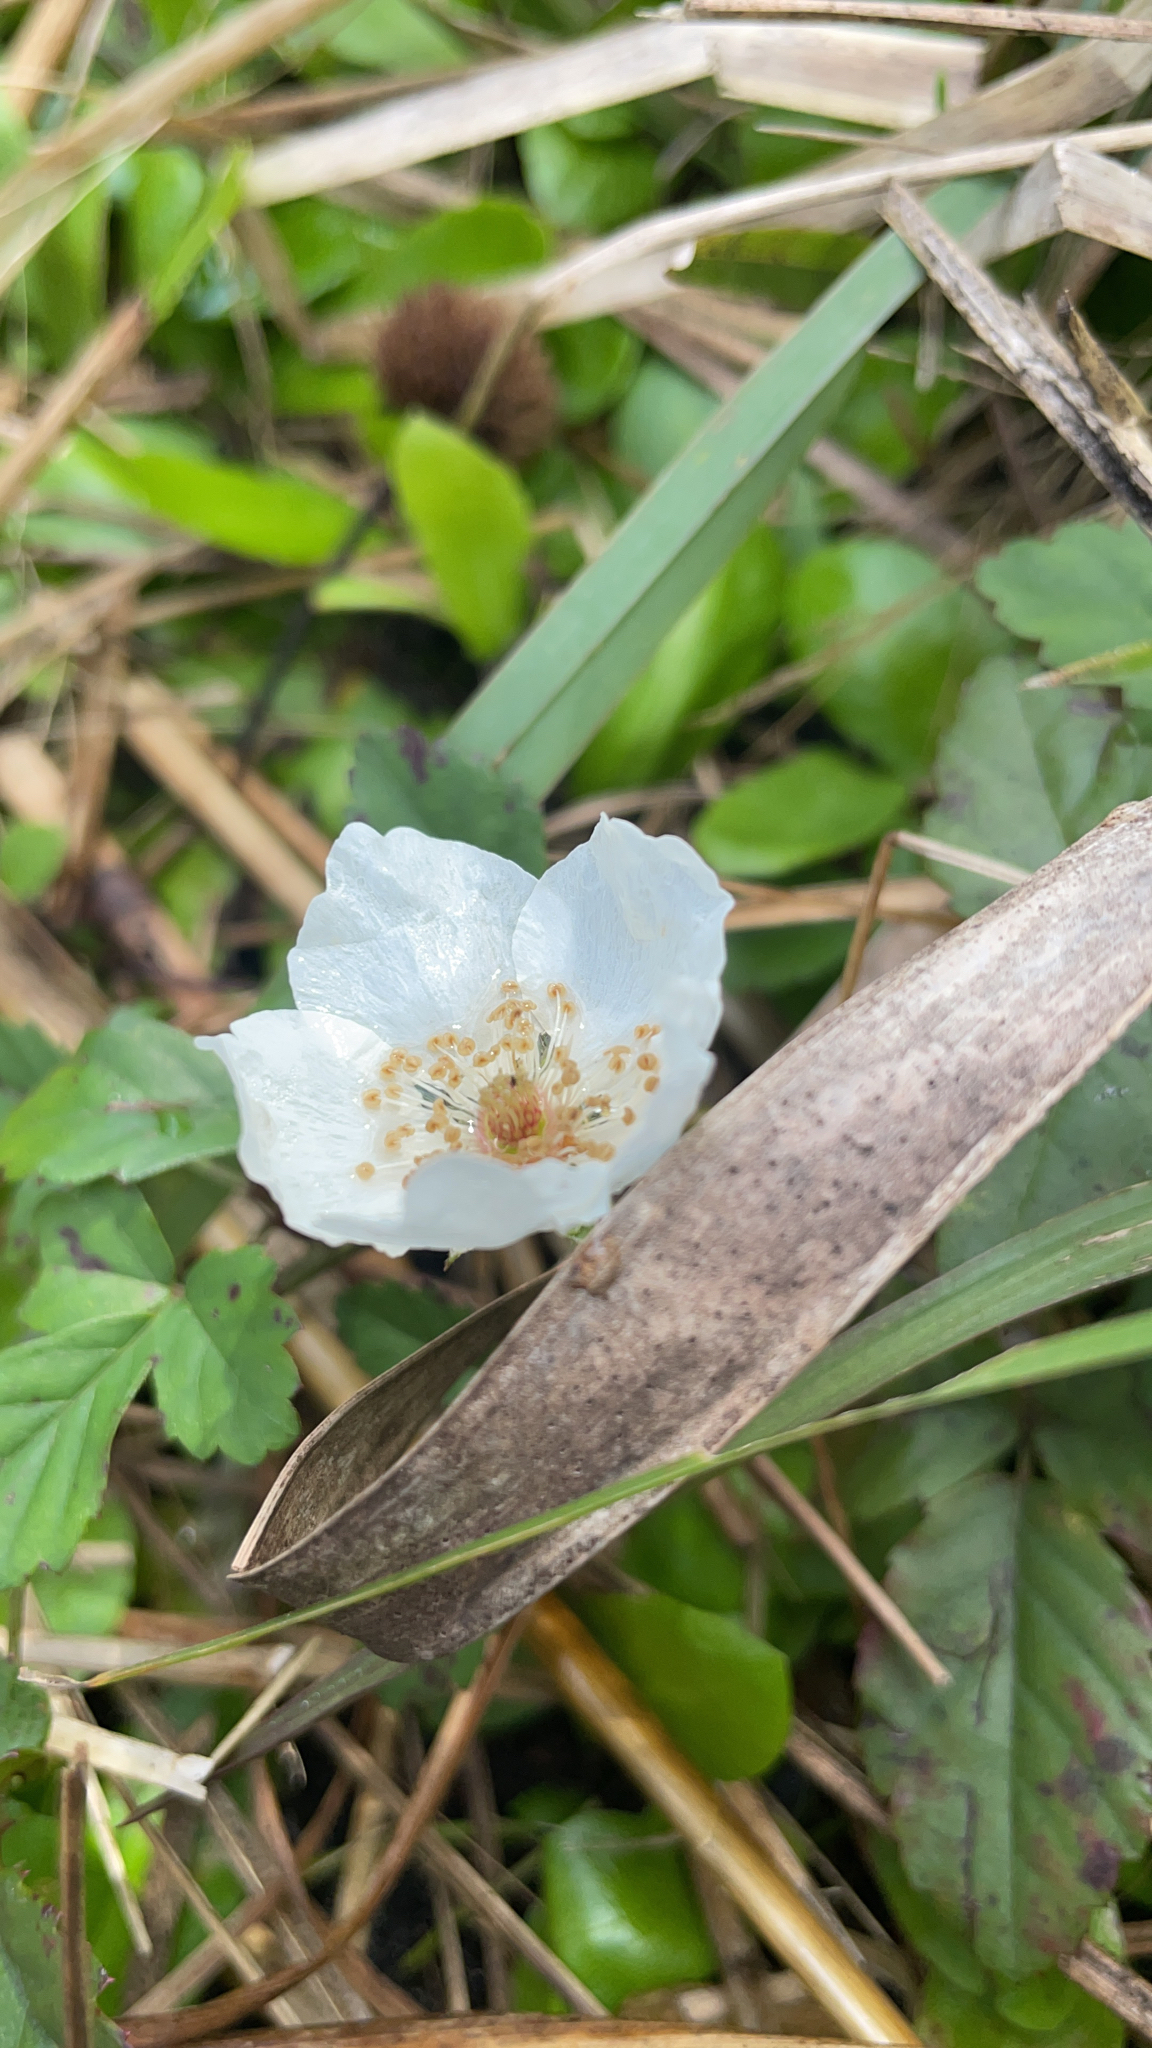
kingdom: Plantae
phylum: Tracheophyta
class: Magnoliopsida
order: Rosales
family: Rosaceae
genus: Rubus
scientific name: Rubus trivialis
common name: Southern dewberry
